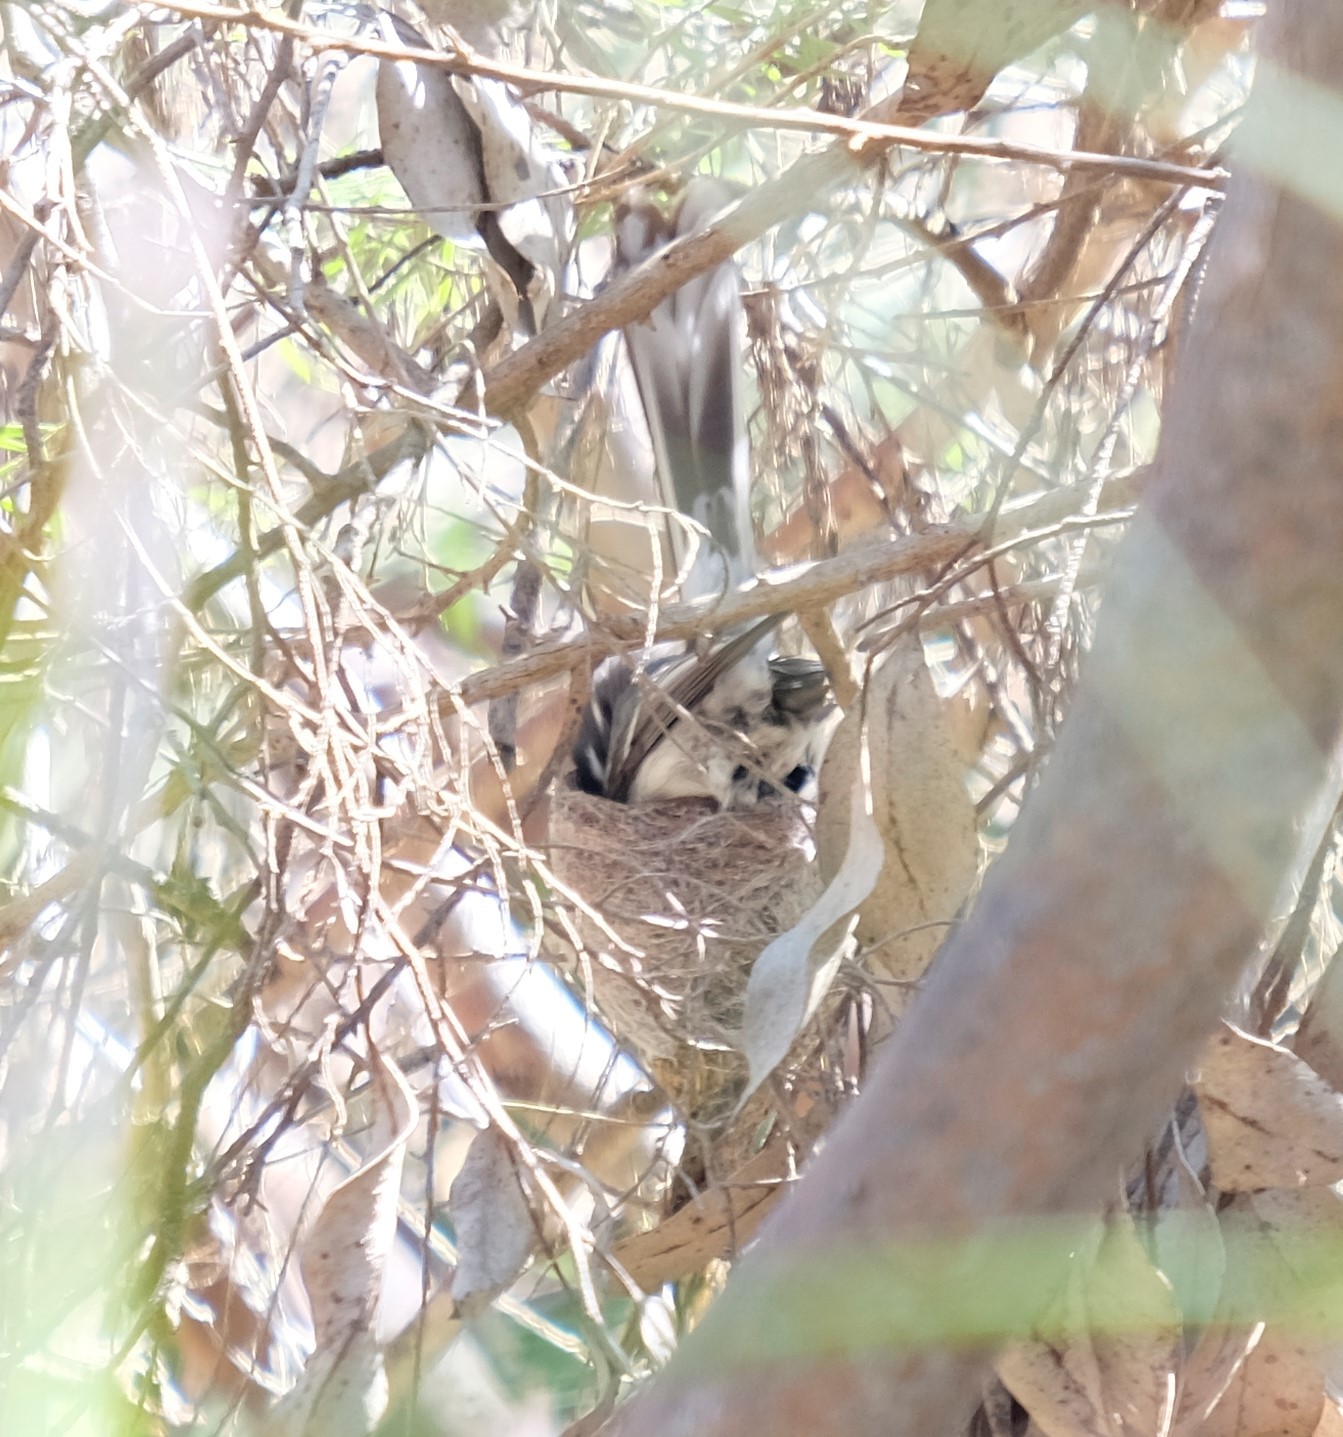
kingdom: Animalia
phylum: Chordata
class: Aves
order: Passeriformes
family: Rhipiduridae
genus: Rhipidura
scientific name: Rhipidura albiscapa
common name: Grey fantail
